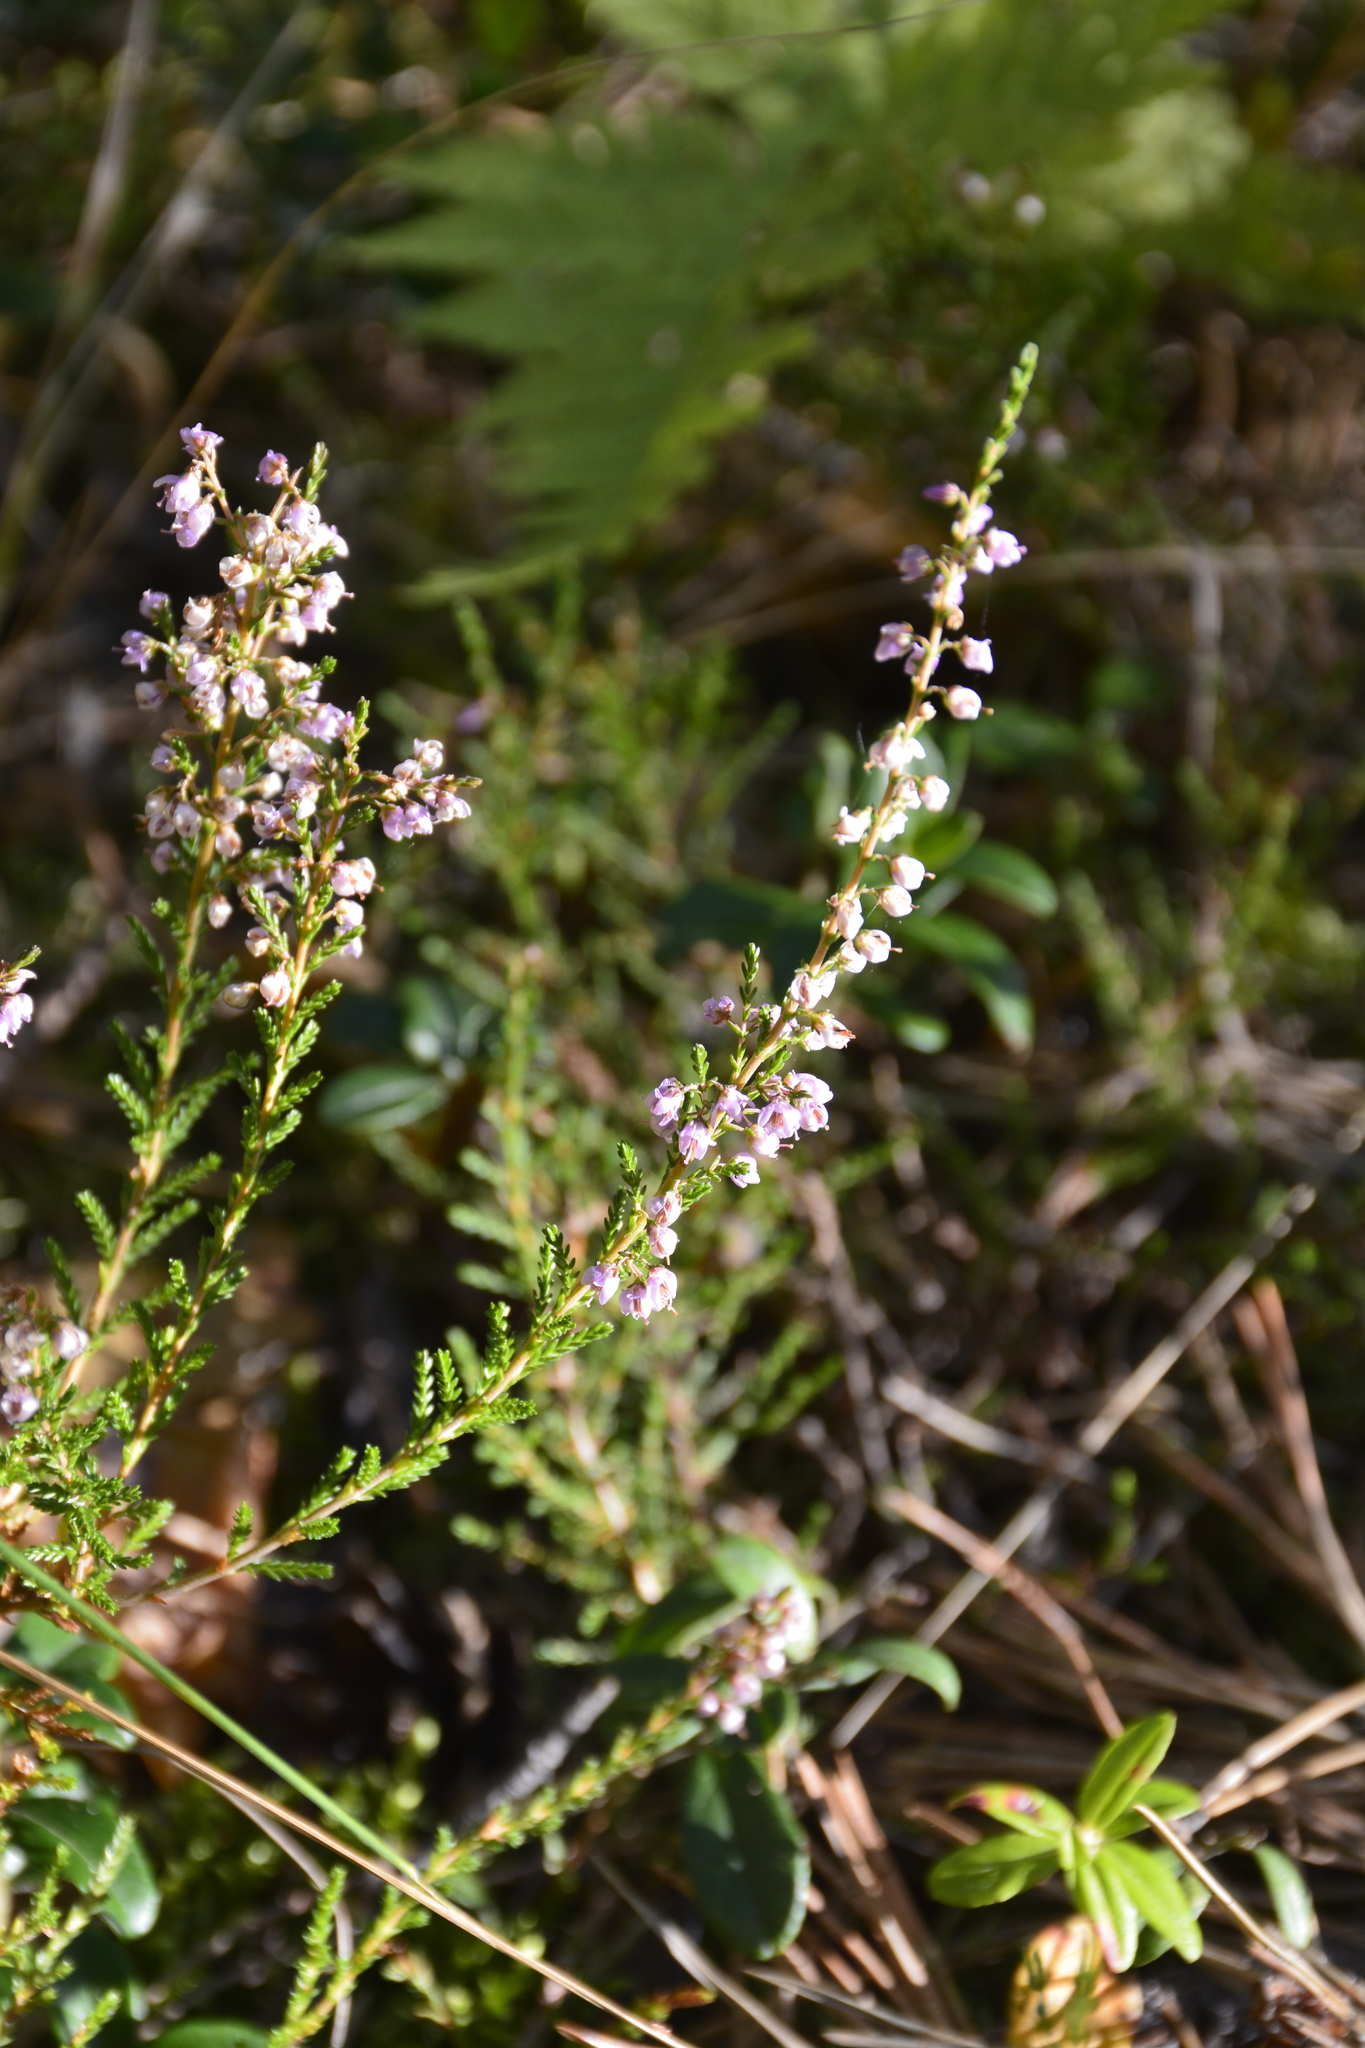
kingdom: Plantae
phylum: Tracheophyta
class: Magnoliopsida
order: Ericales
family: Ericaceae
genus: Calluna
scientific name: Calluna vulgaris
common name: Heather
